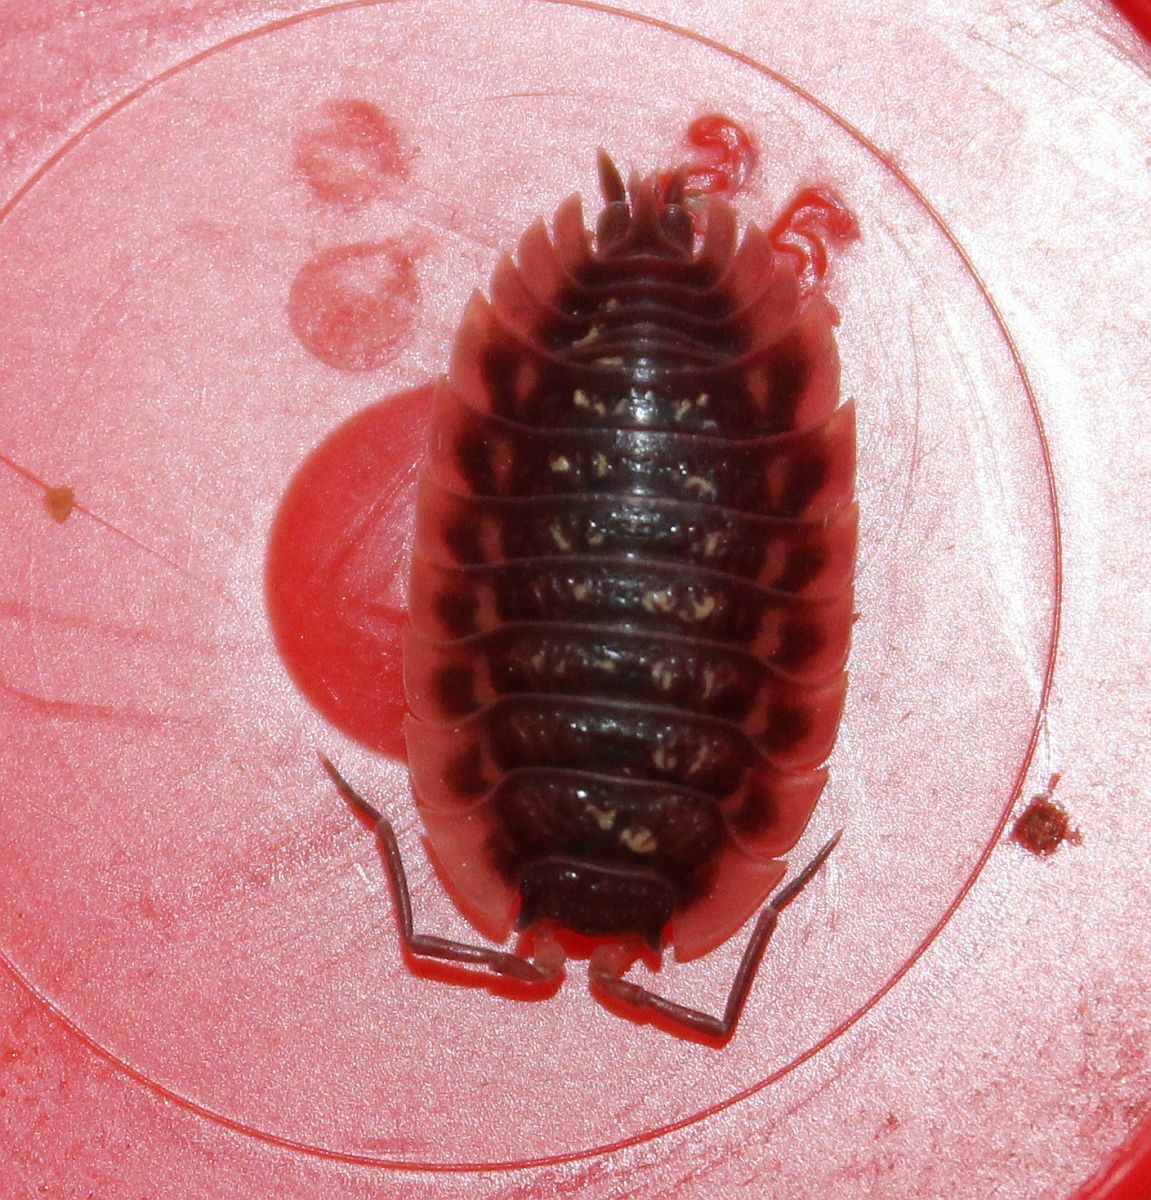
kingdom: Animalia
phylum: Arthropoda
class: Malacostraca
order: Isopoda
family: Oniscidae
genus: Oniscus
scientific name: Oniscus asellus
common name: Common shiny woodlouse
